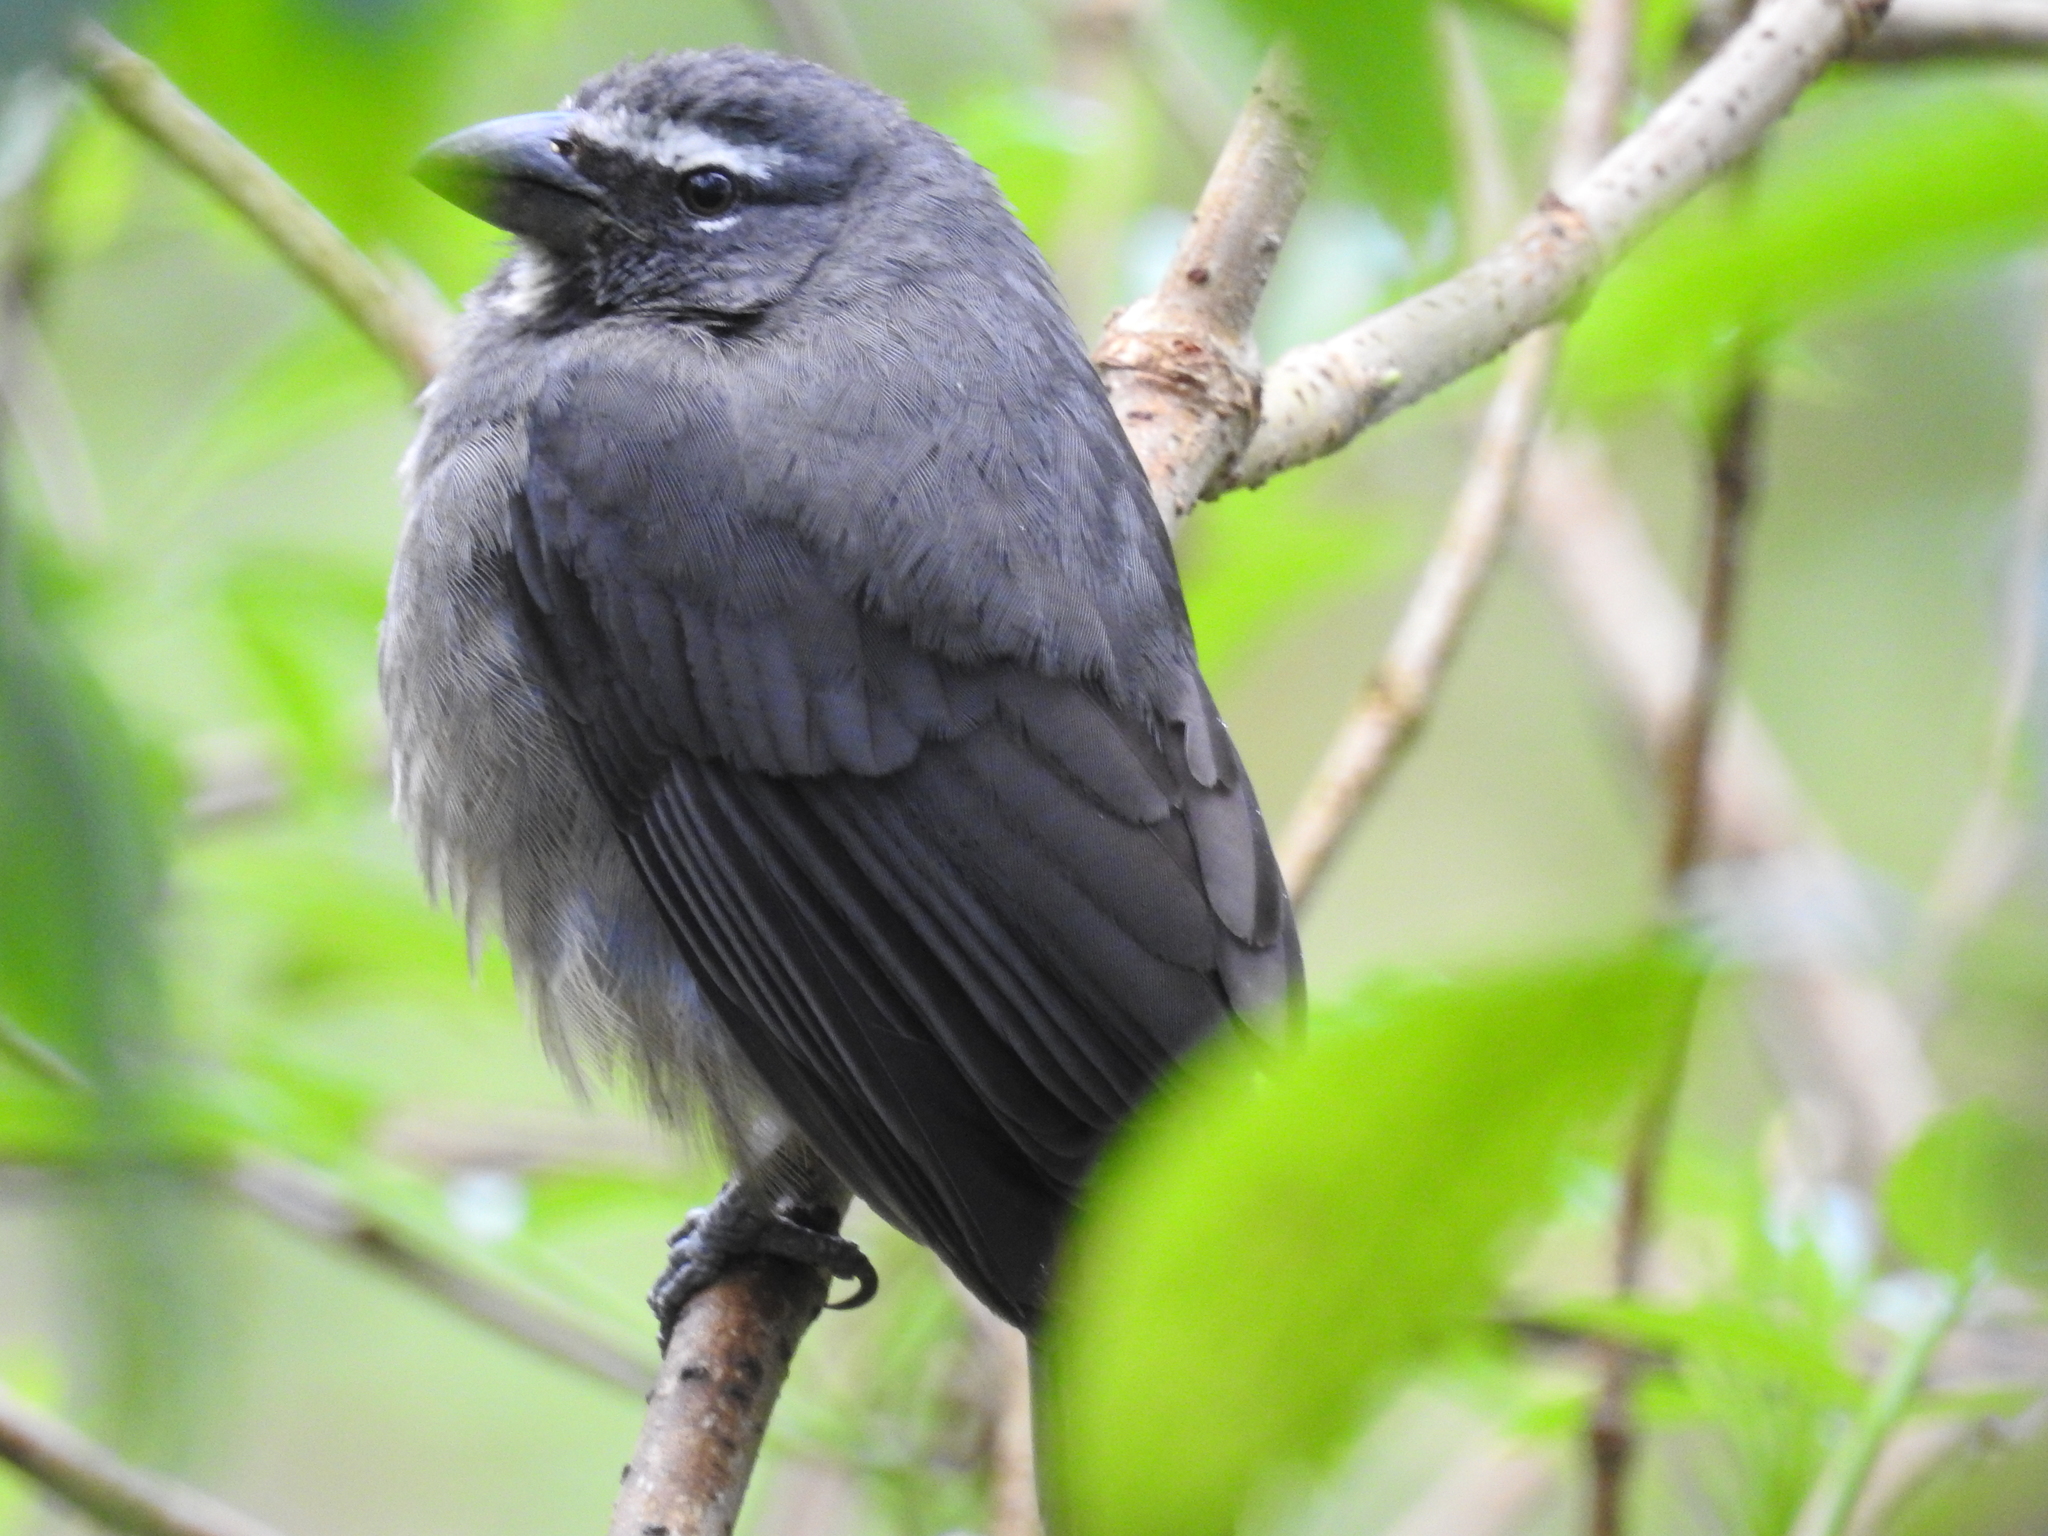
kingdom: Animalia
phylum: Chordata
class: Aves
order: Passeriformes
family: Thraupidae
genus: Saltator
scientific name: Saltator grandis
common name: Cinnamon-bellied saltator
